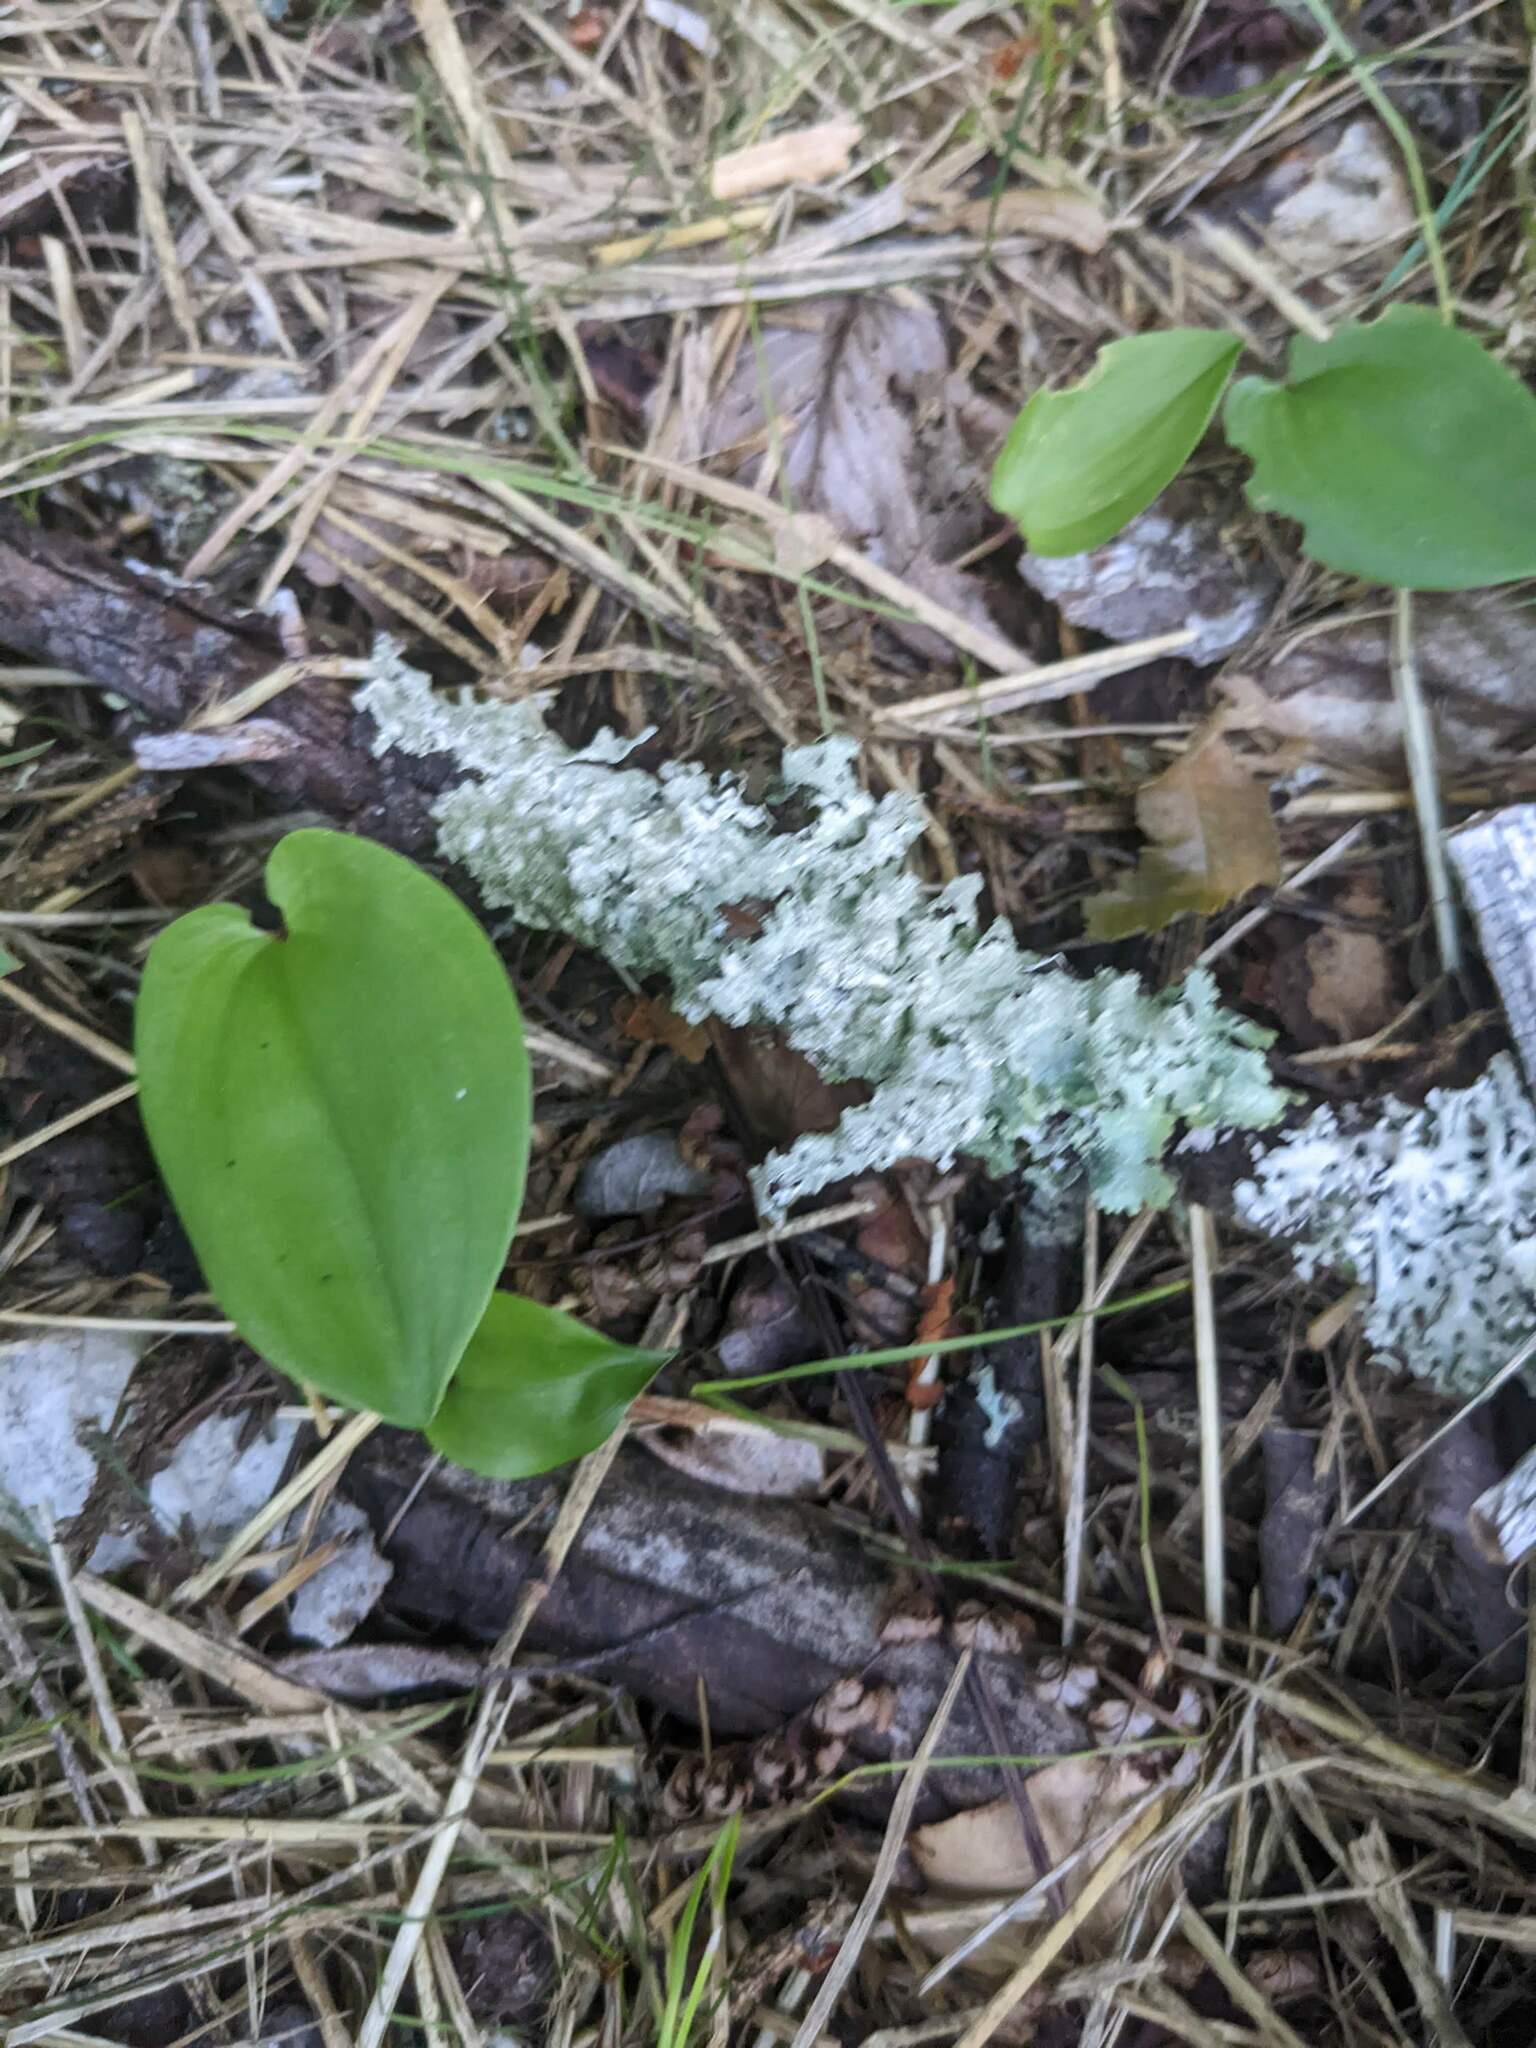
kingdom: Plantae
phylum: Tracheophyta
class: Liliopsida
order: Asparagales
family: Asparagaceae
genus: Maianthemum
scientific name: Maianthemum canadense
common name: False lily-of-the-valley
